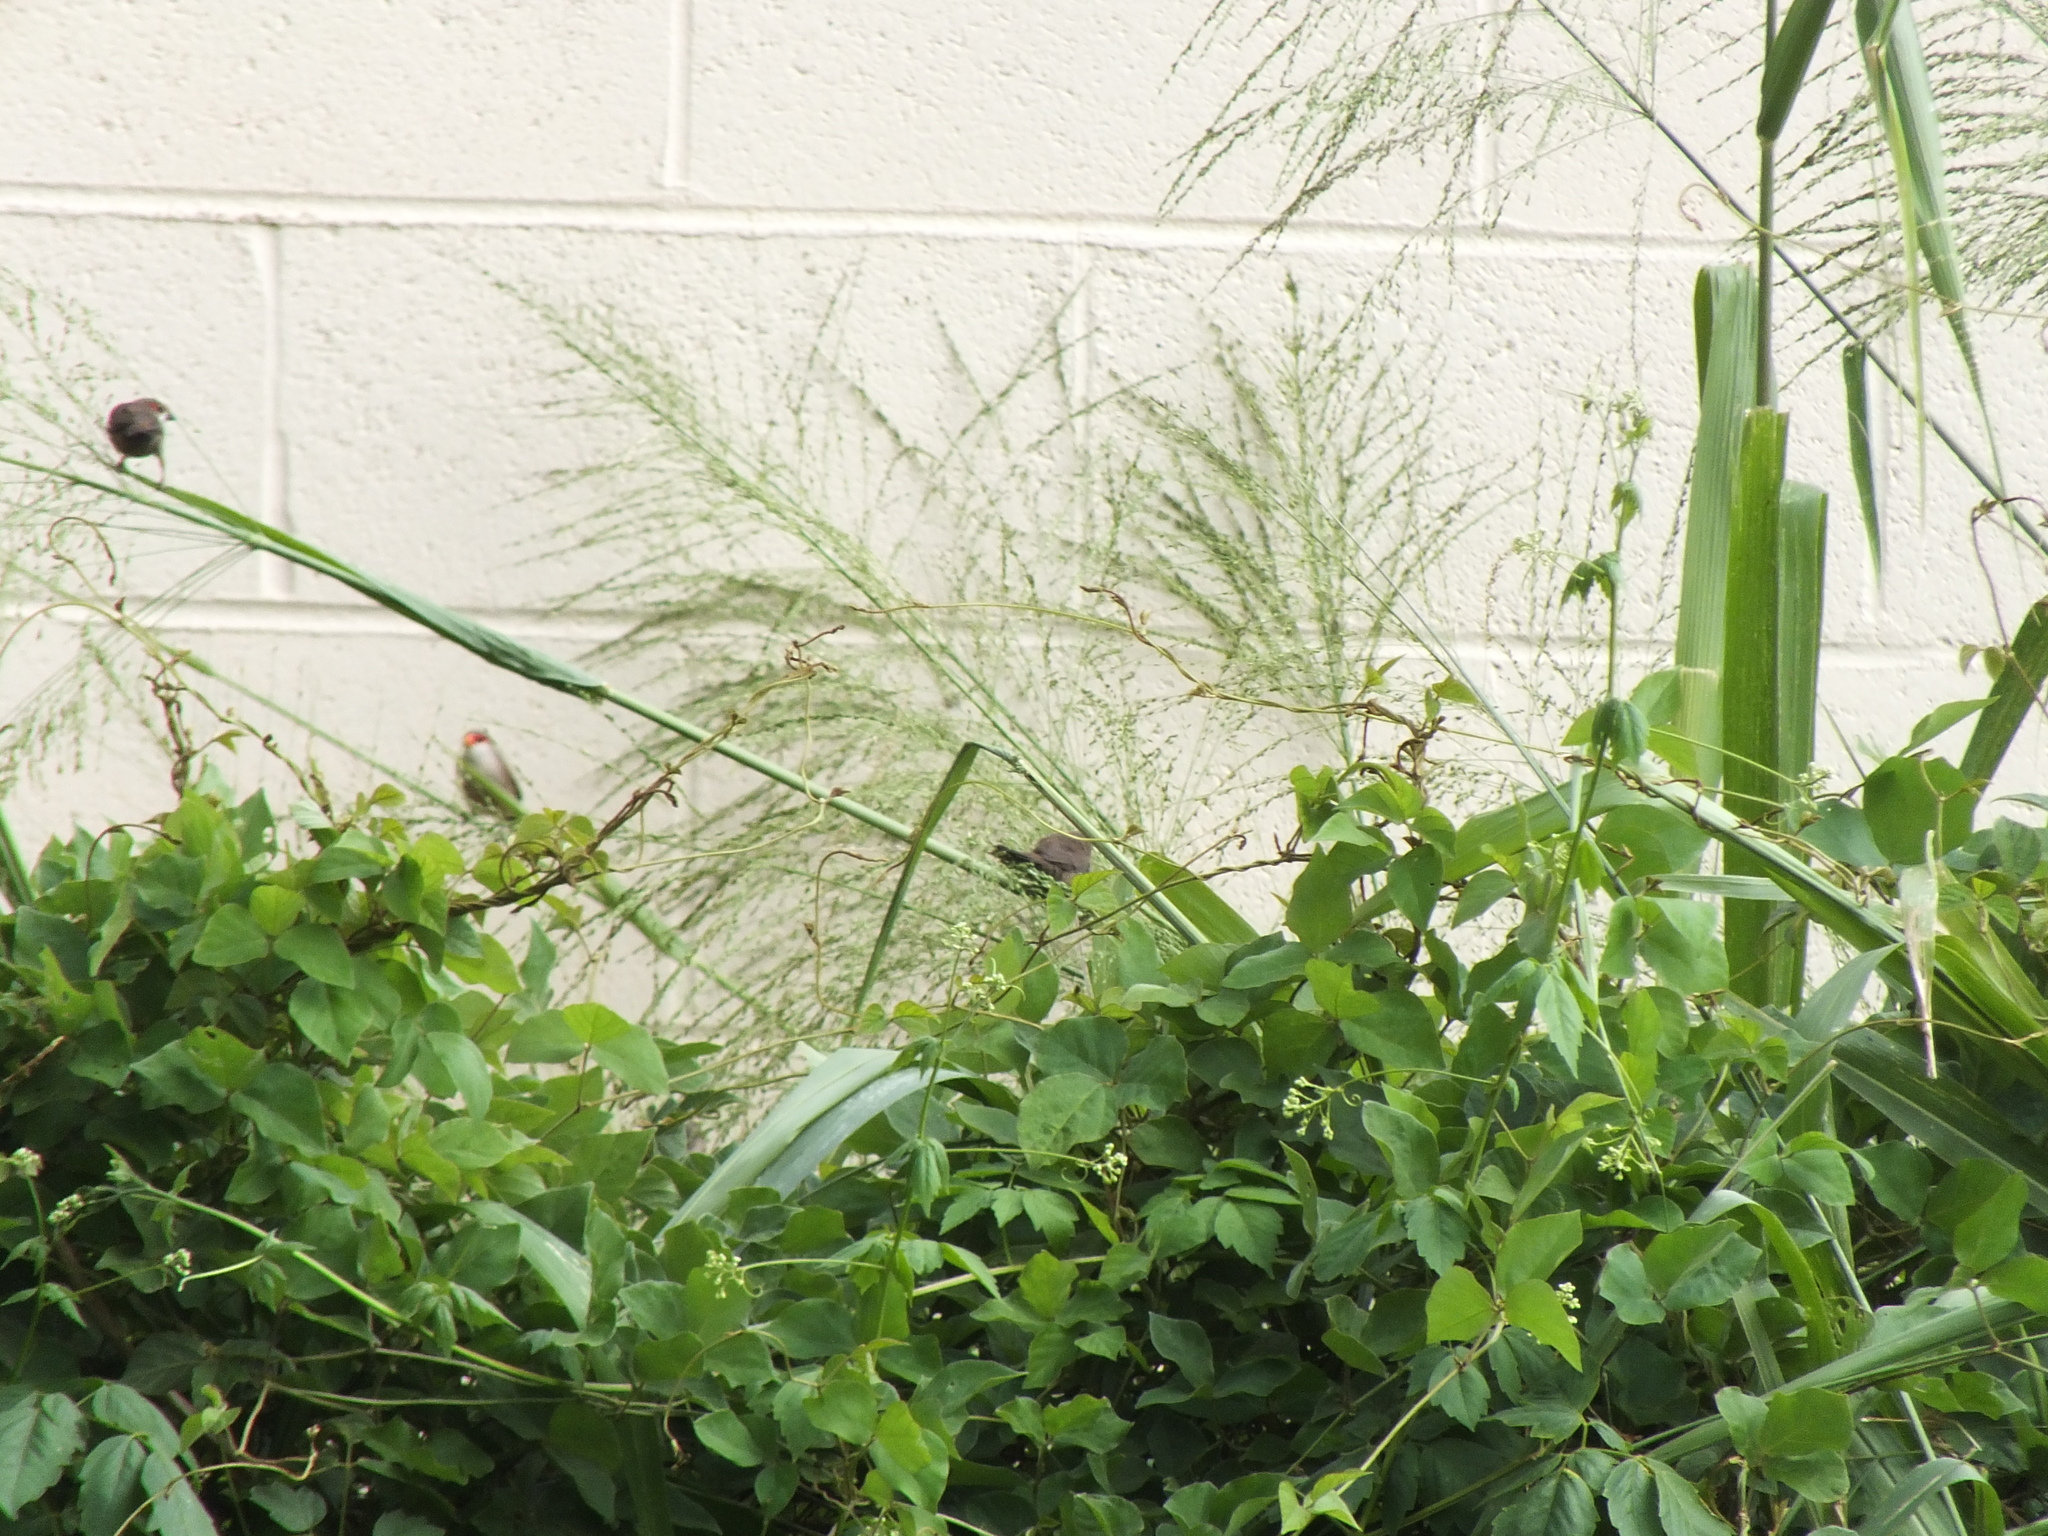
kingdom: Animalia
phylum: Chordata
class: Aves
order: Passeriformes
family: Estrildidae
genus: Estrilda
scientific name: Estrilda astrild
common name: Common waxbill
